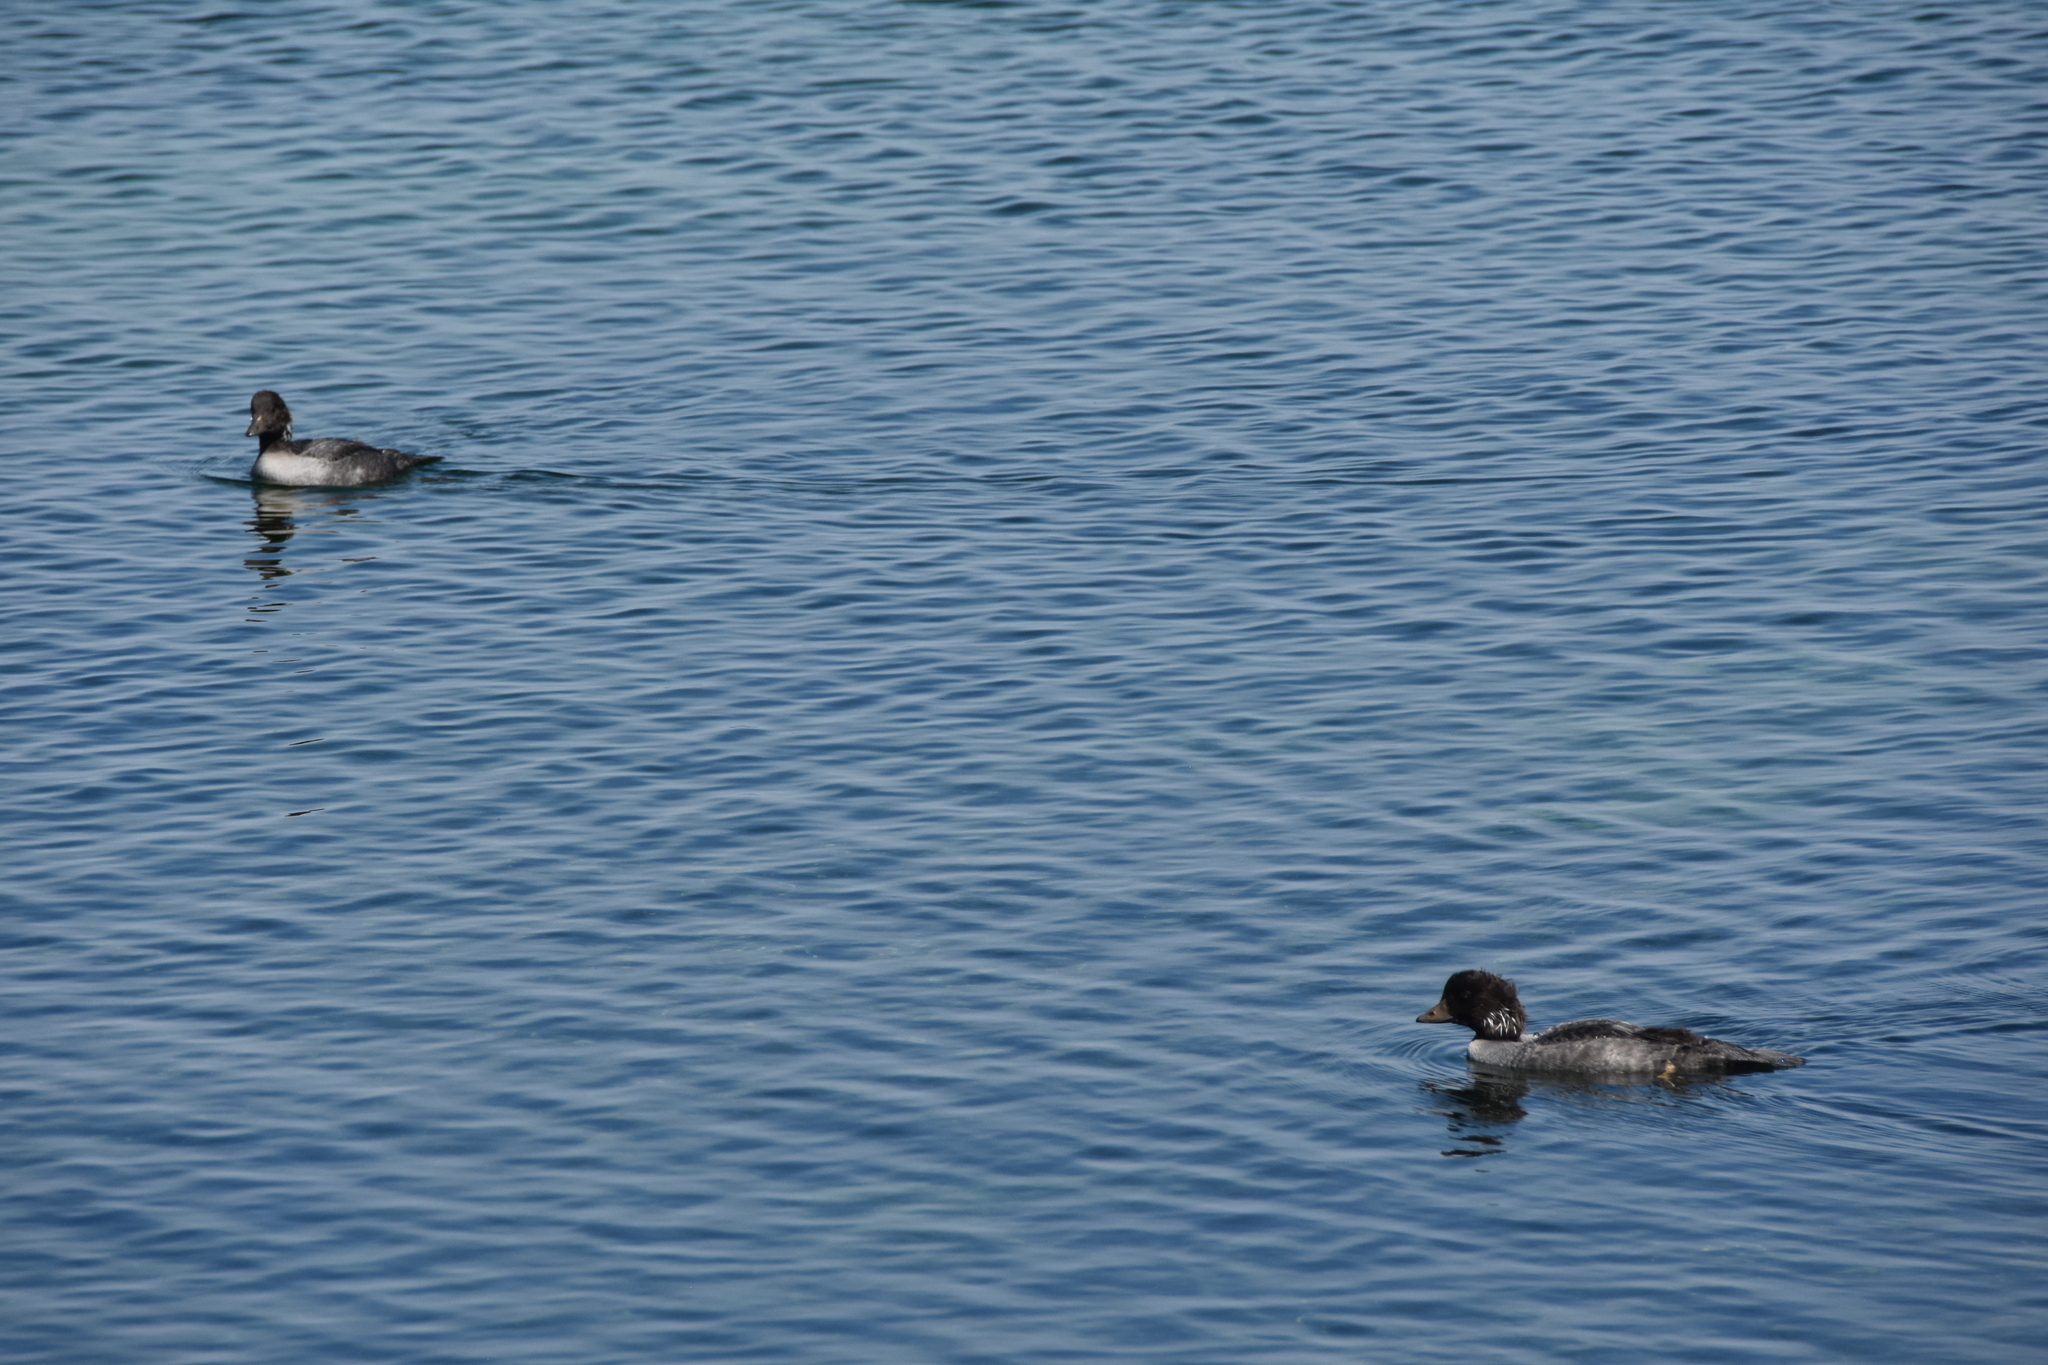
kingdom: Animalia
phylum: Chordata
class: Aves
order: Anseriformes
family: Anatidae
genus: Bucephala
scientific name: Bucephala islandica
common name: Barrow's goldeneye
